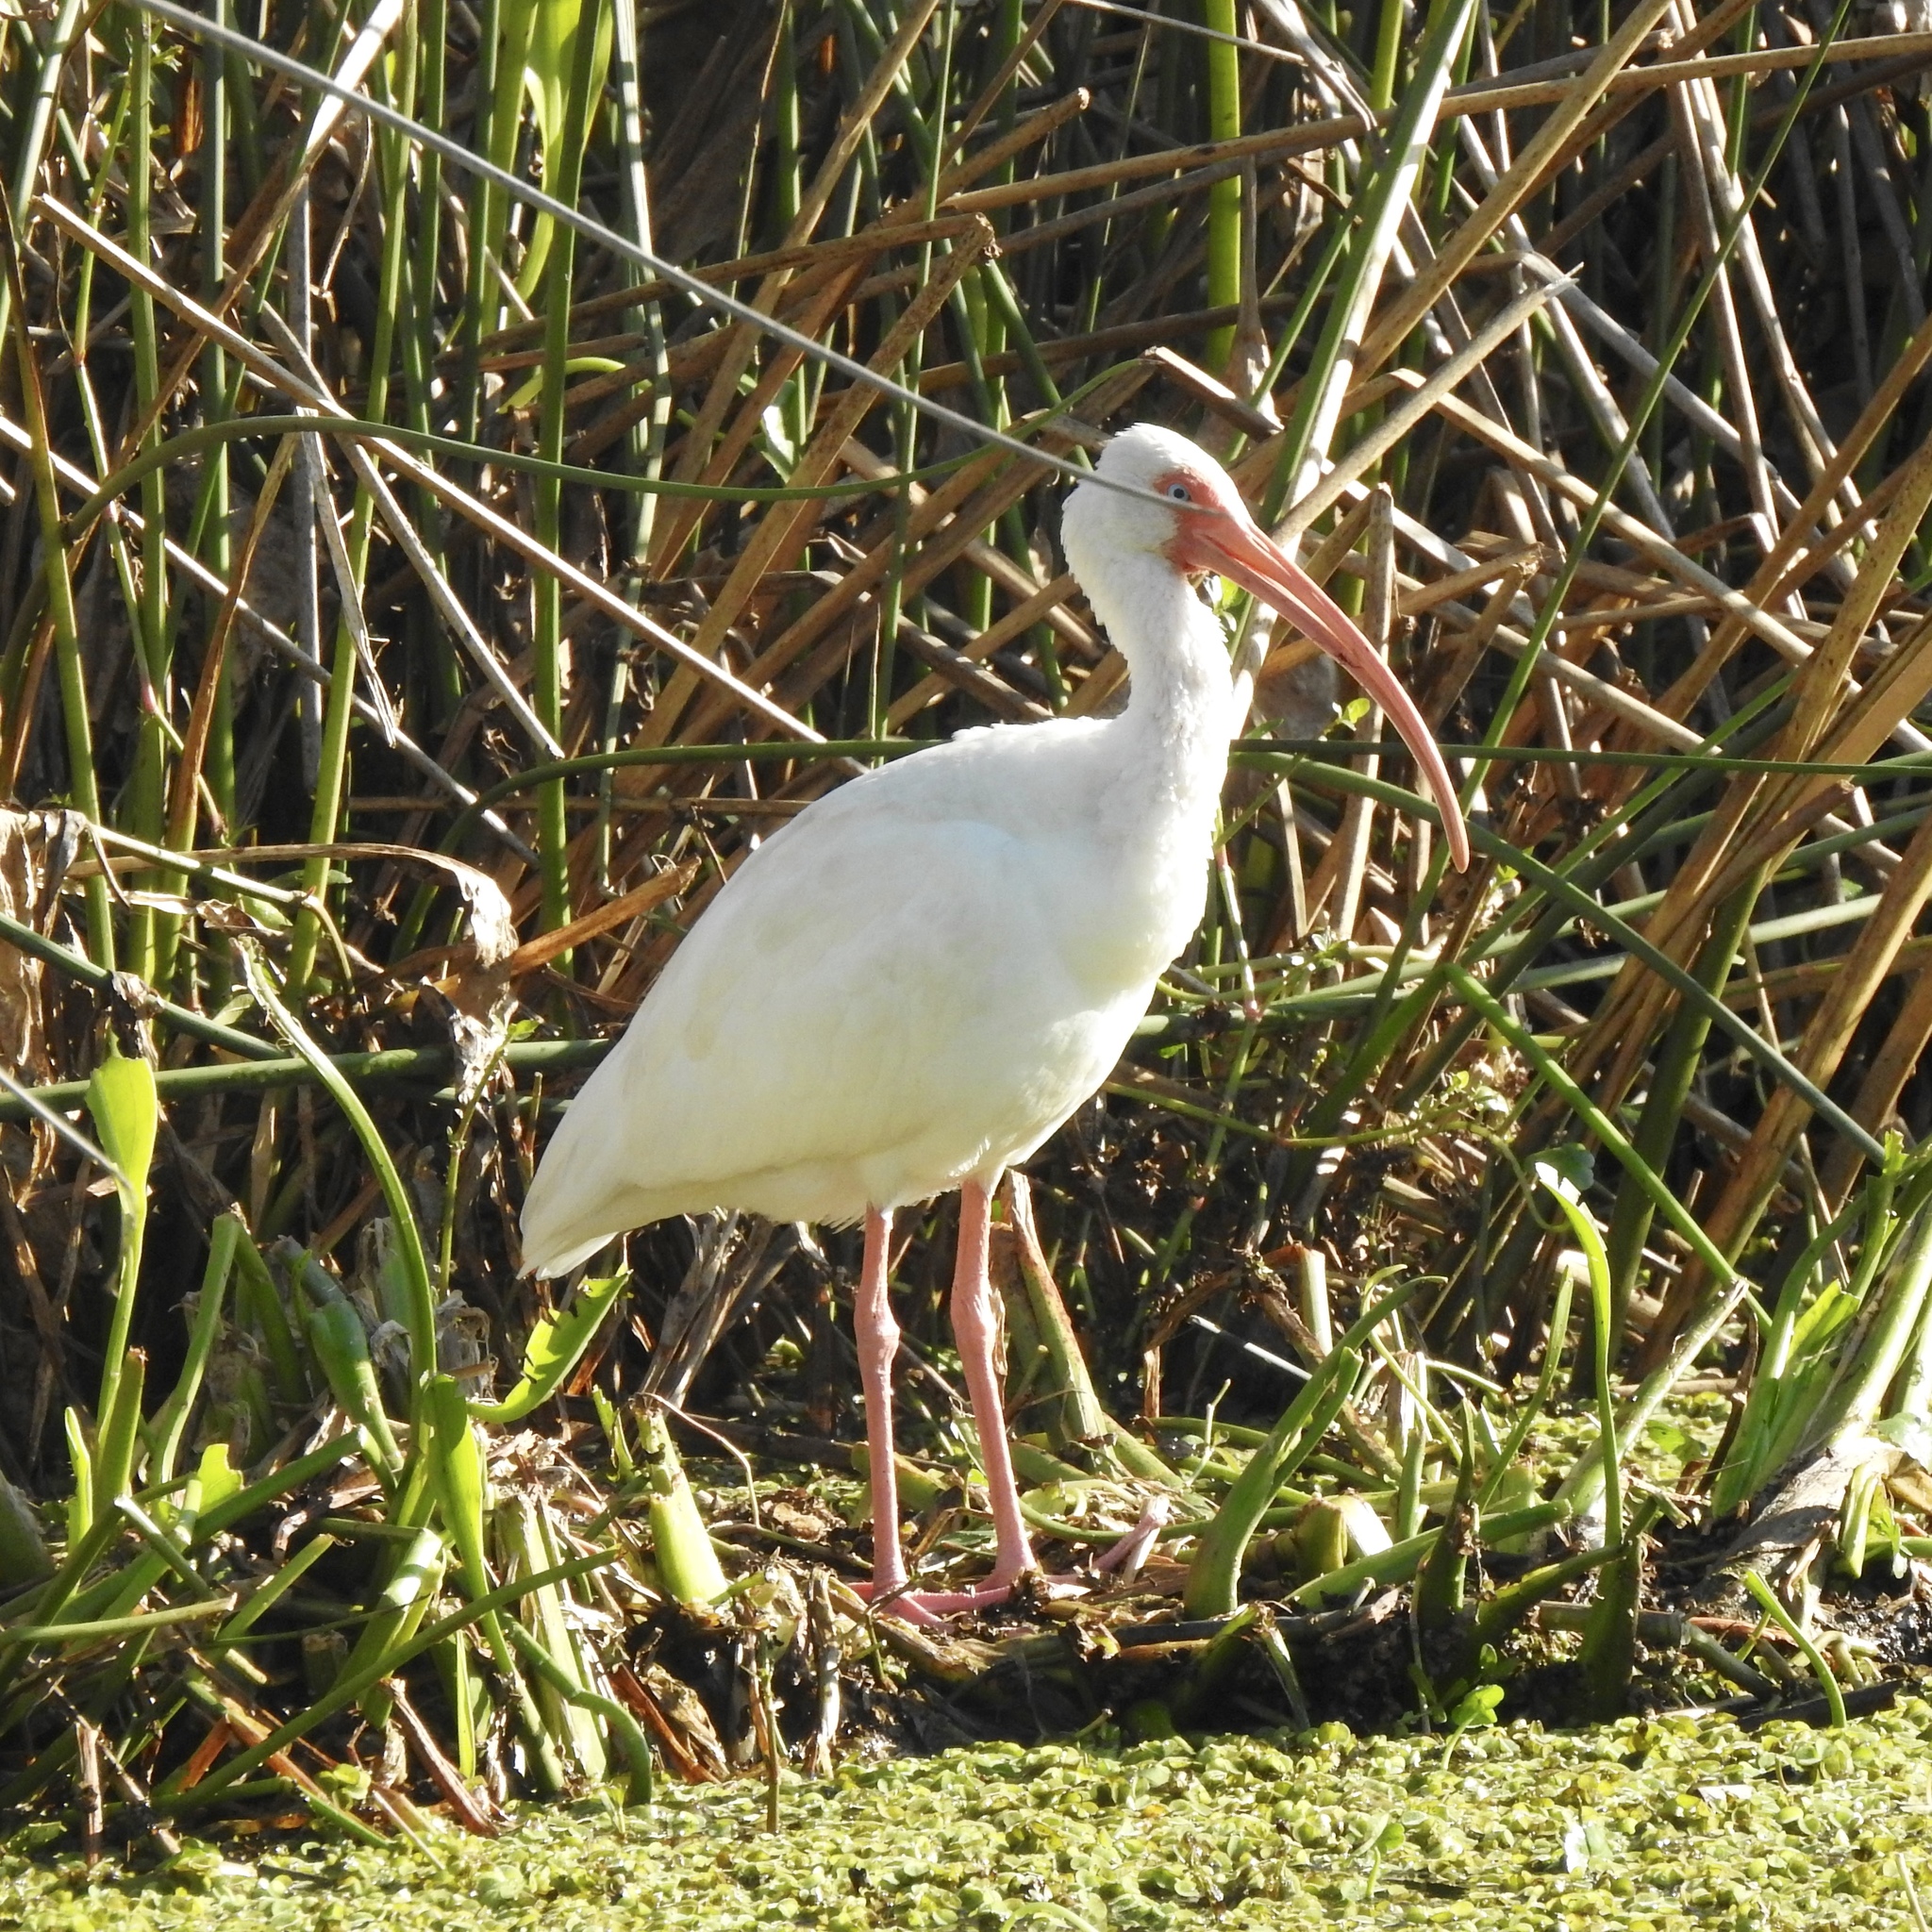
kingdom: Animalia
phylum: Chordata
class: Aves
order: Pelecaniformes
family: Threskiornithidae
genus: Eudocimus
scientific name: Eudocimus albus
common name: White ibis
